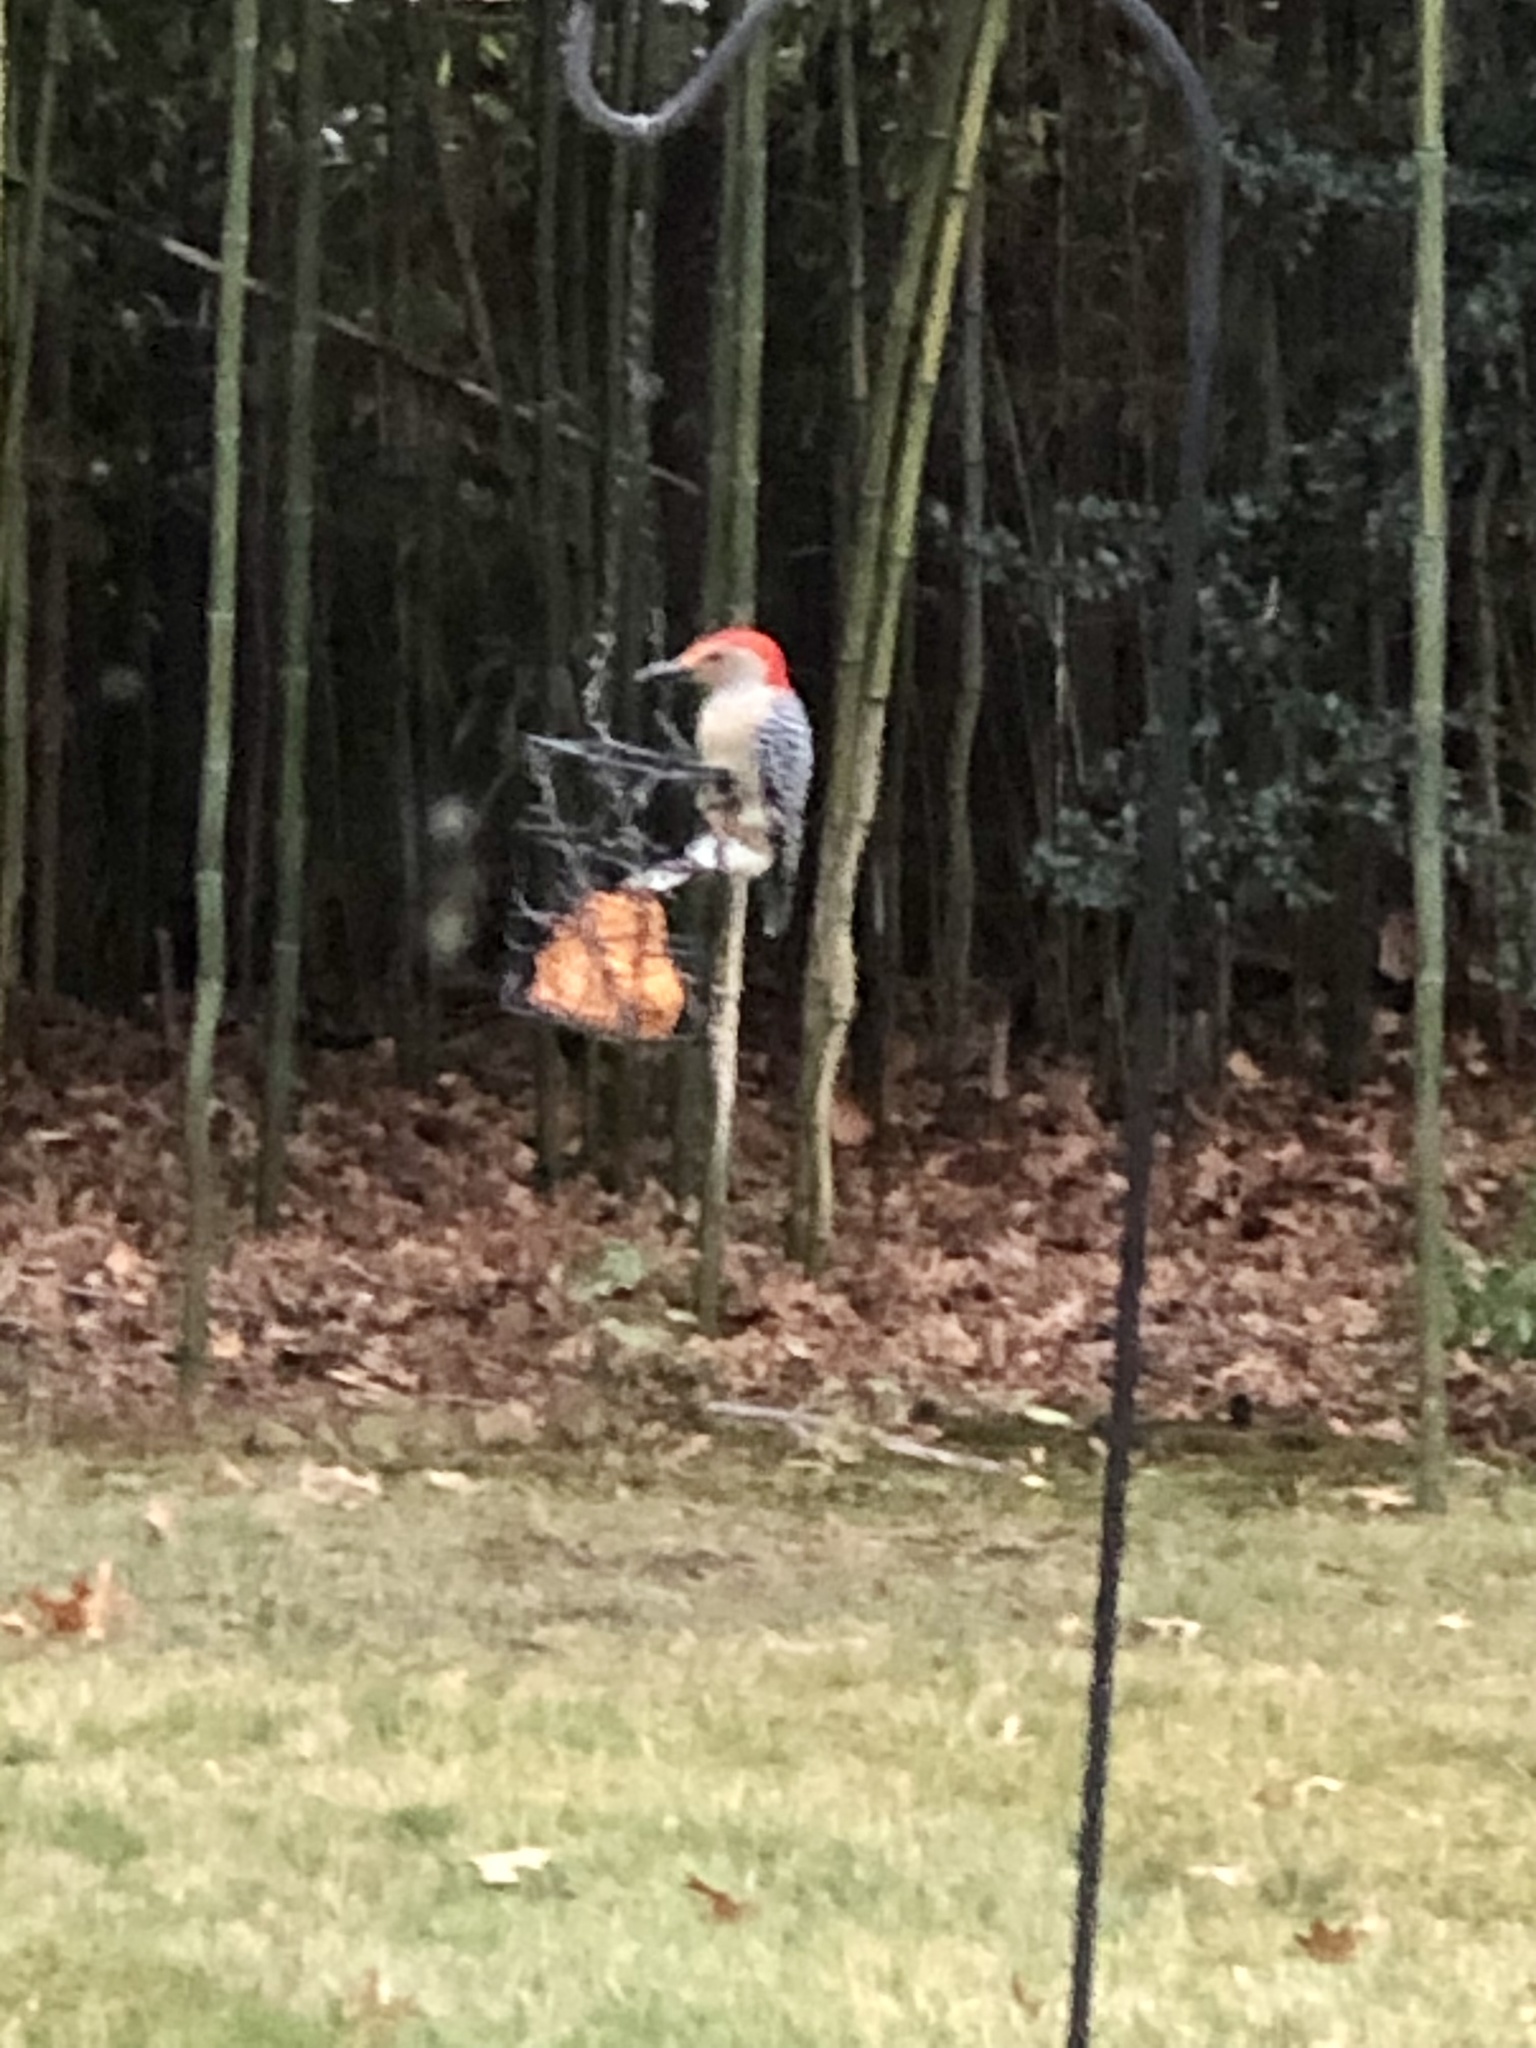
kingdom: Animalia
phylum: Chordata
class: Aves
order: Piciformes
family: Picidae
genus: Melanerpes
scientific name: Melanerpes carolinus
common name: Red-bellied woodpecker
